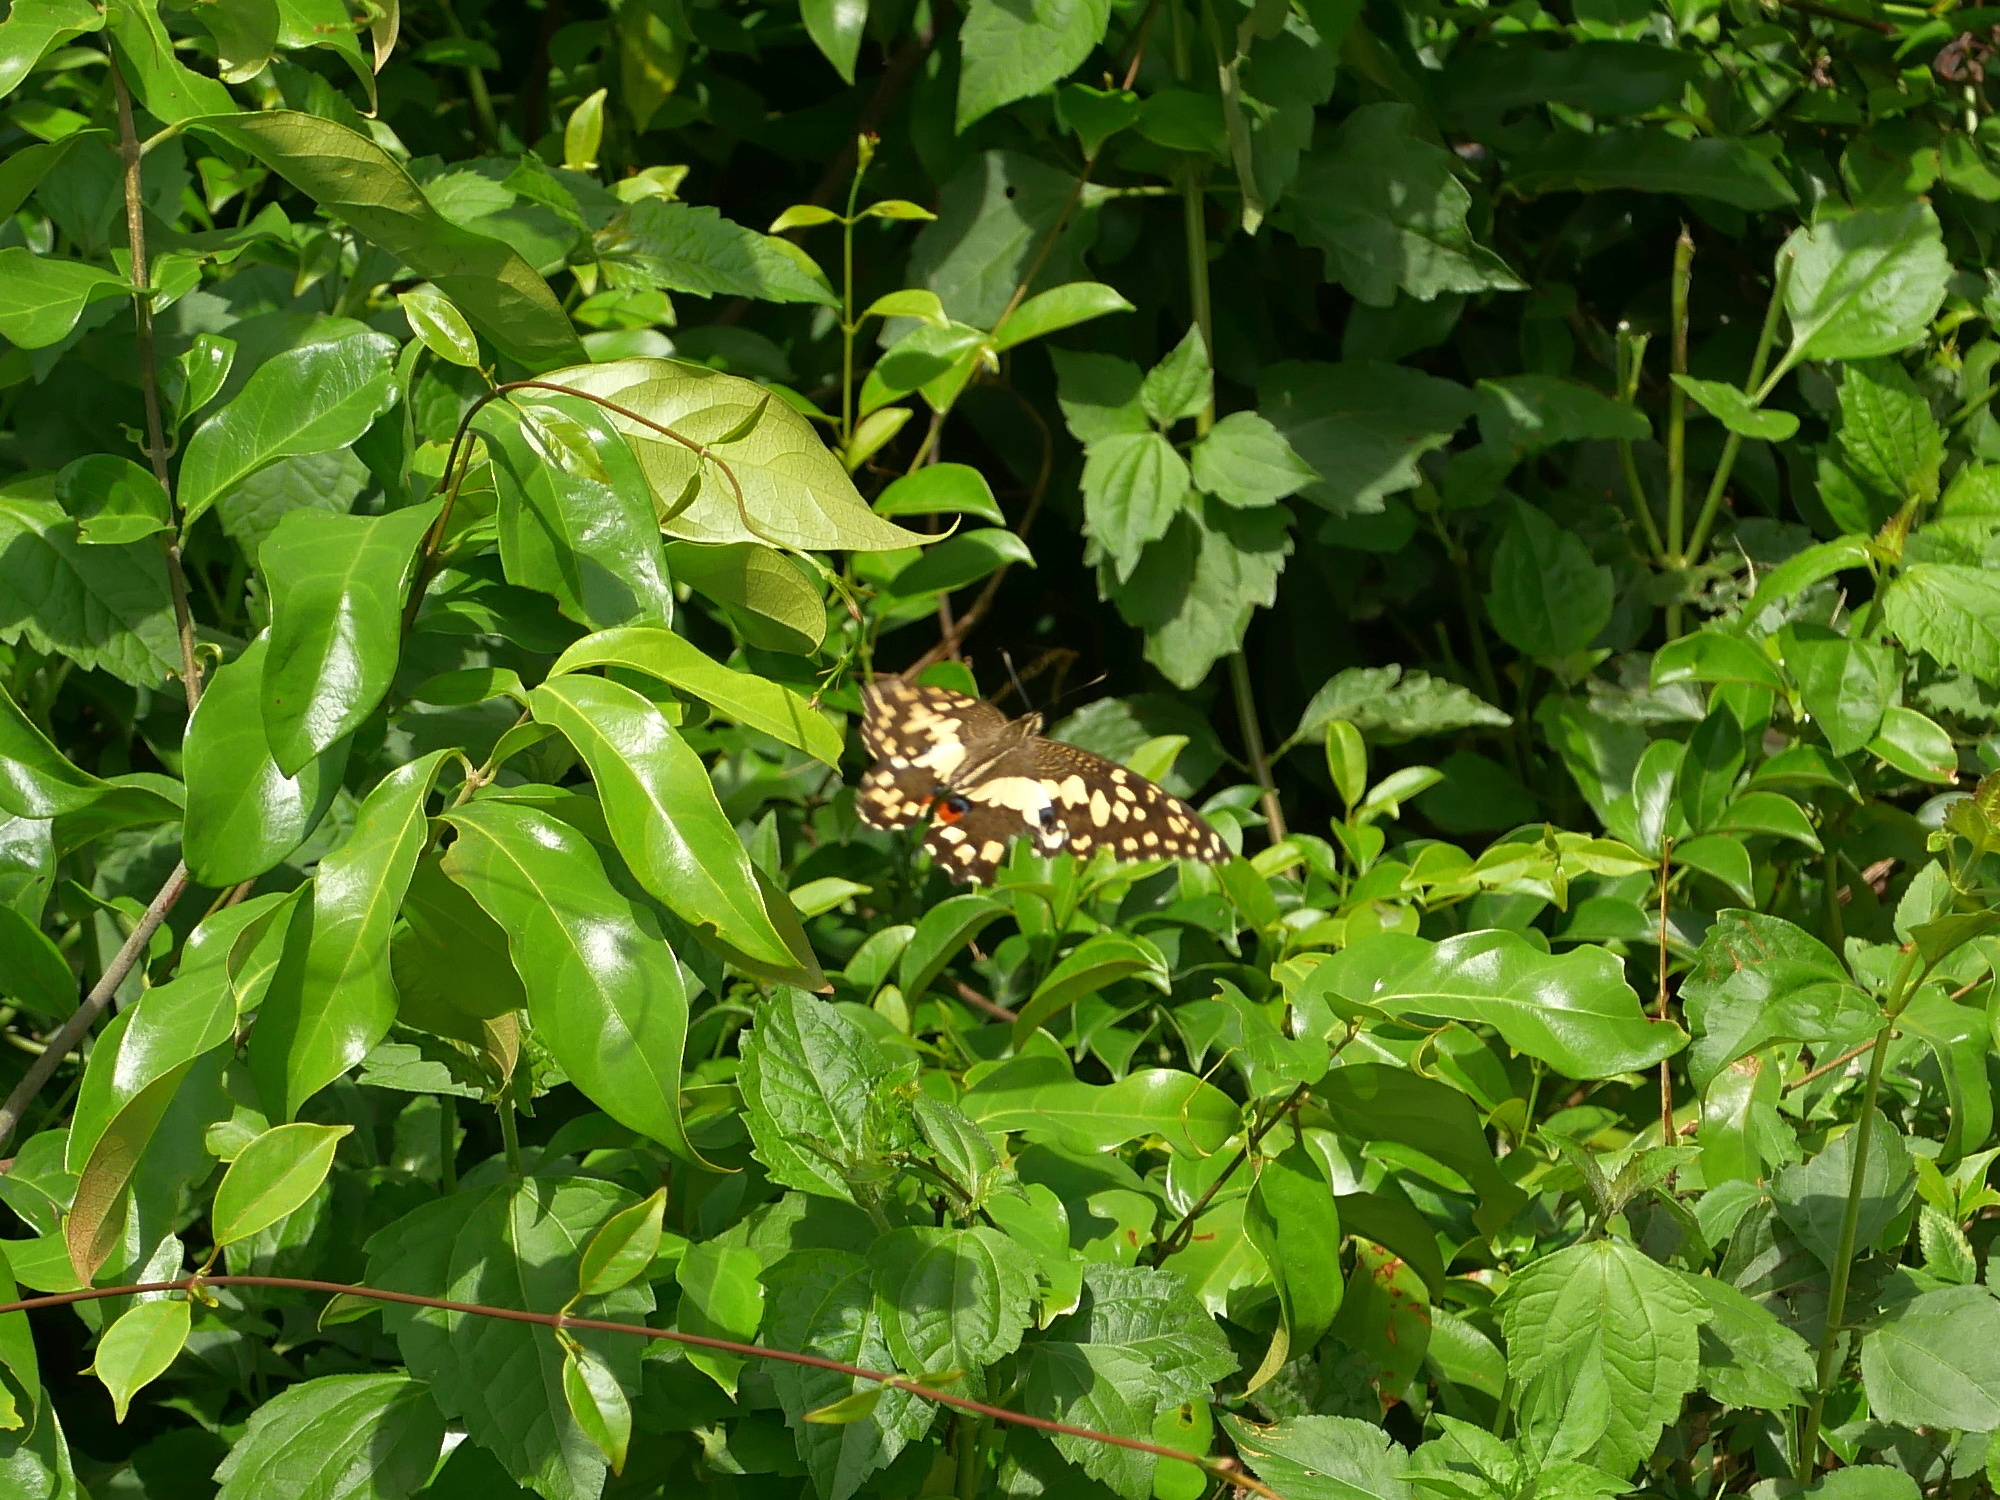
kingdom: Animalia
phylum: Arthropoda
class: Insecta
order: Lepidoptera
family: Papilionidae
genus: Papilio
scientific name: Papilio demoleus
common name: Lime butterfly
